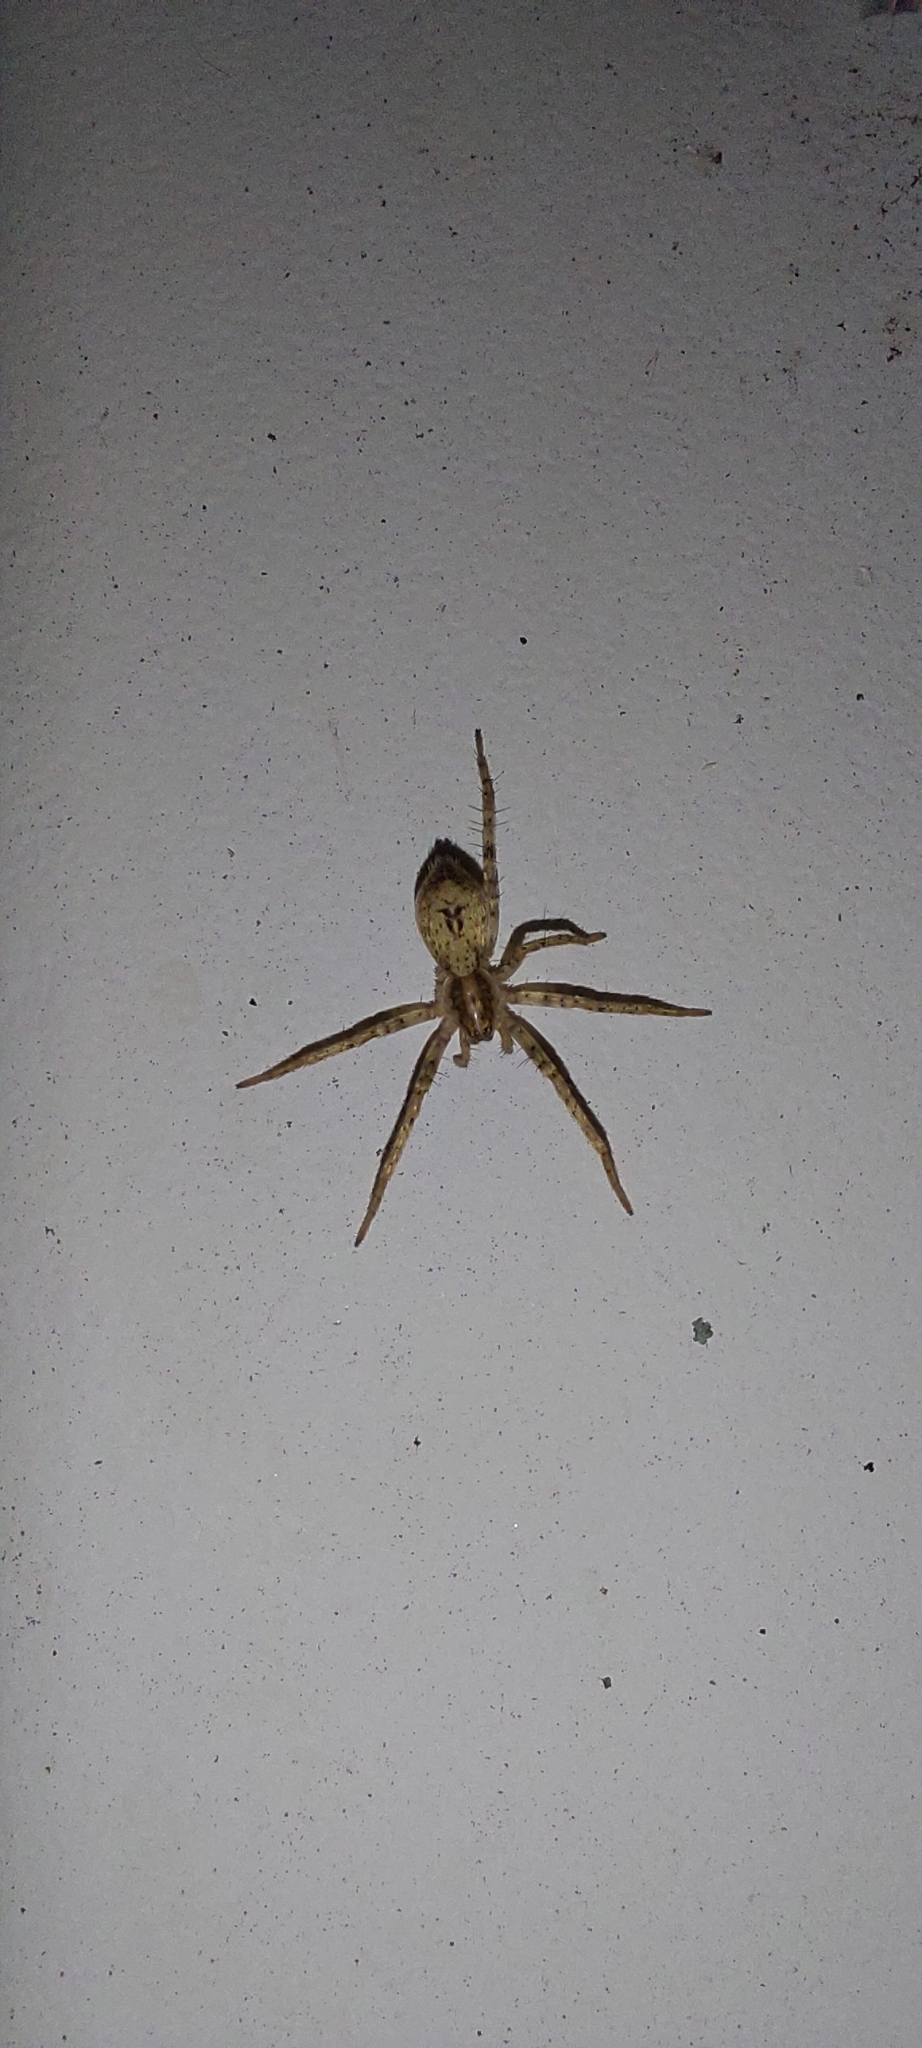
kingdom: Animalia
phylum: Arthropoda
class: Arachnida
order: Araneae
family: Anyphaenidae
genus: Anyphaena
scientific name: Anyphaena accentuata
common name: Buzzing spider
